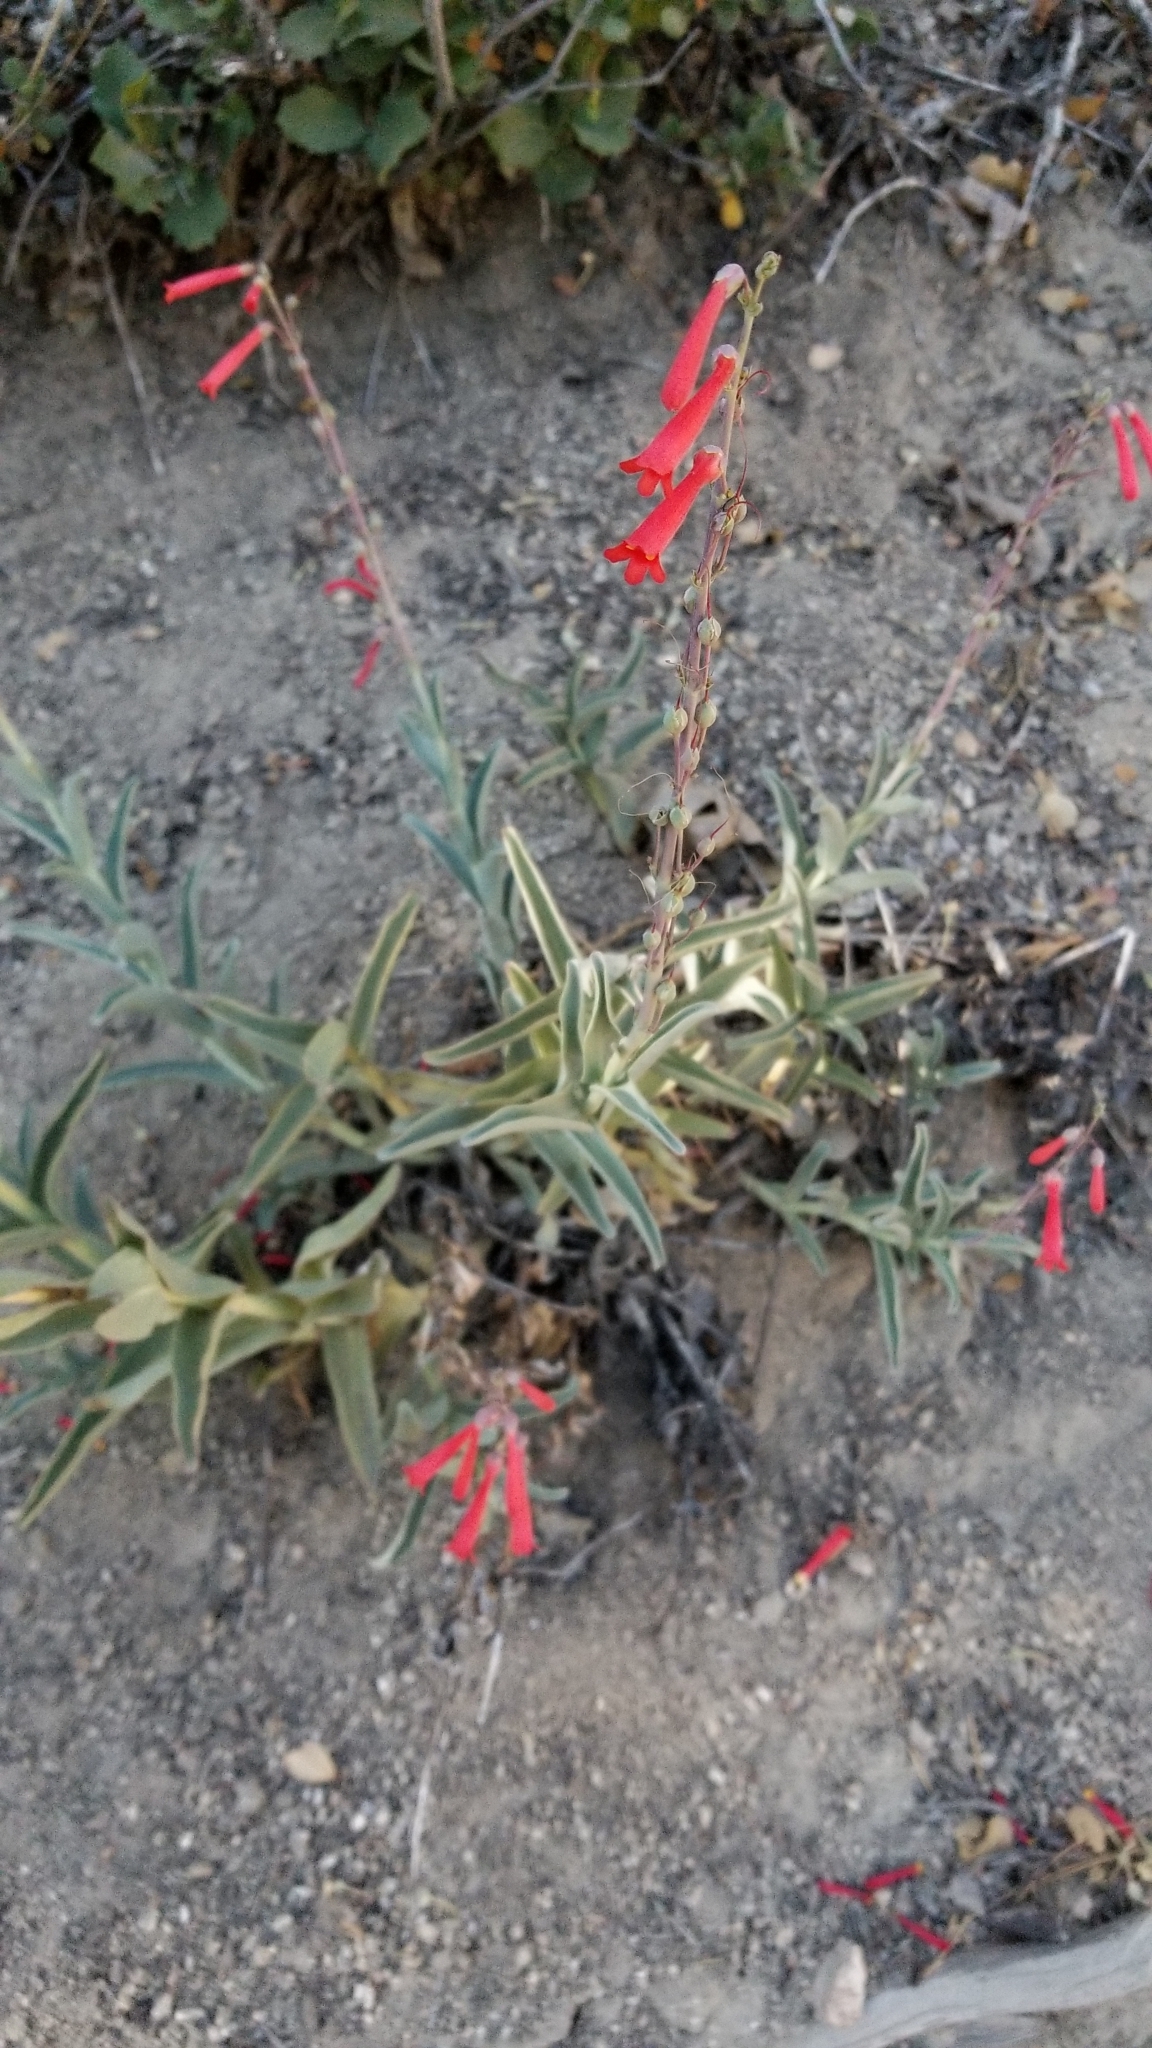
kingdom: Plantae
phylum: Tracheophyta
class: Magnoliopsida
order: Lamiales
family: Plantaginaceae
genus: Penstemon
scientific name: Penstemon centranthifolius
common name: Scarlet bugler
